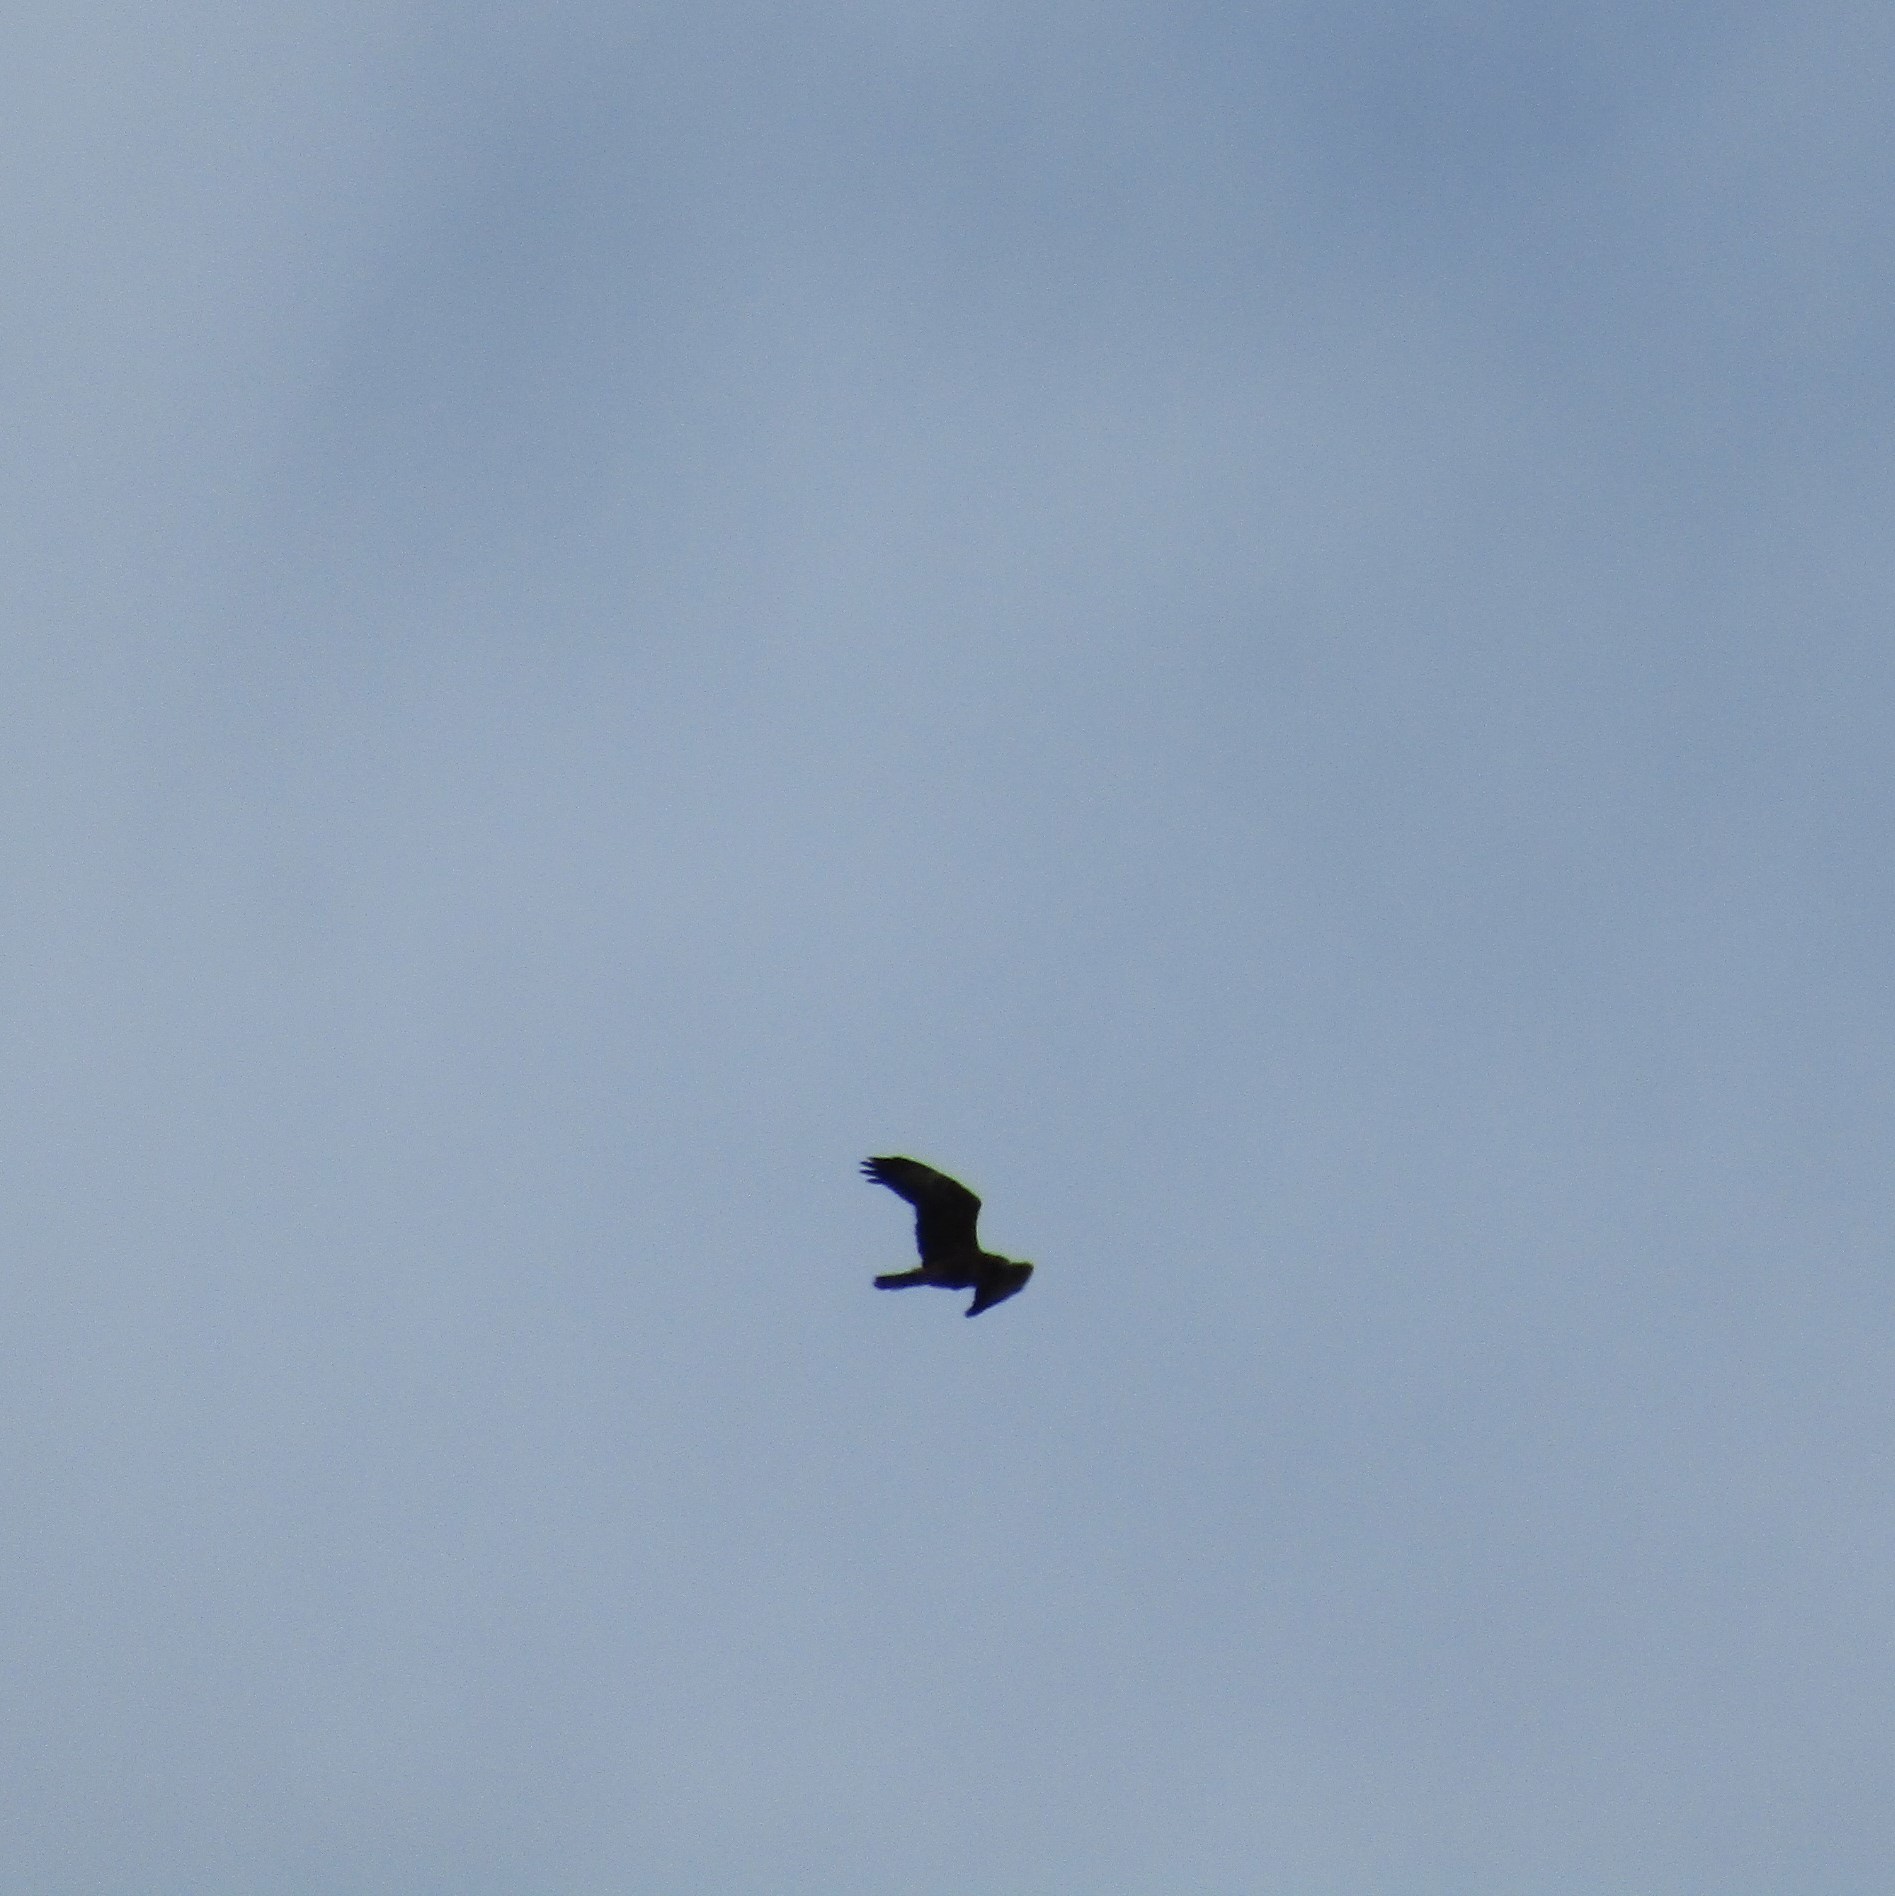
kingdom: Animalia
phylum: Chordata
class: Aves
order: Accipitriformes
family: Accipitridae
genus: Circus
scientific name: Circus approximans
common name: Swamp harrier
